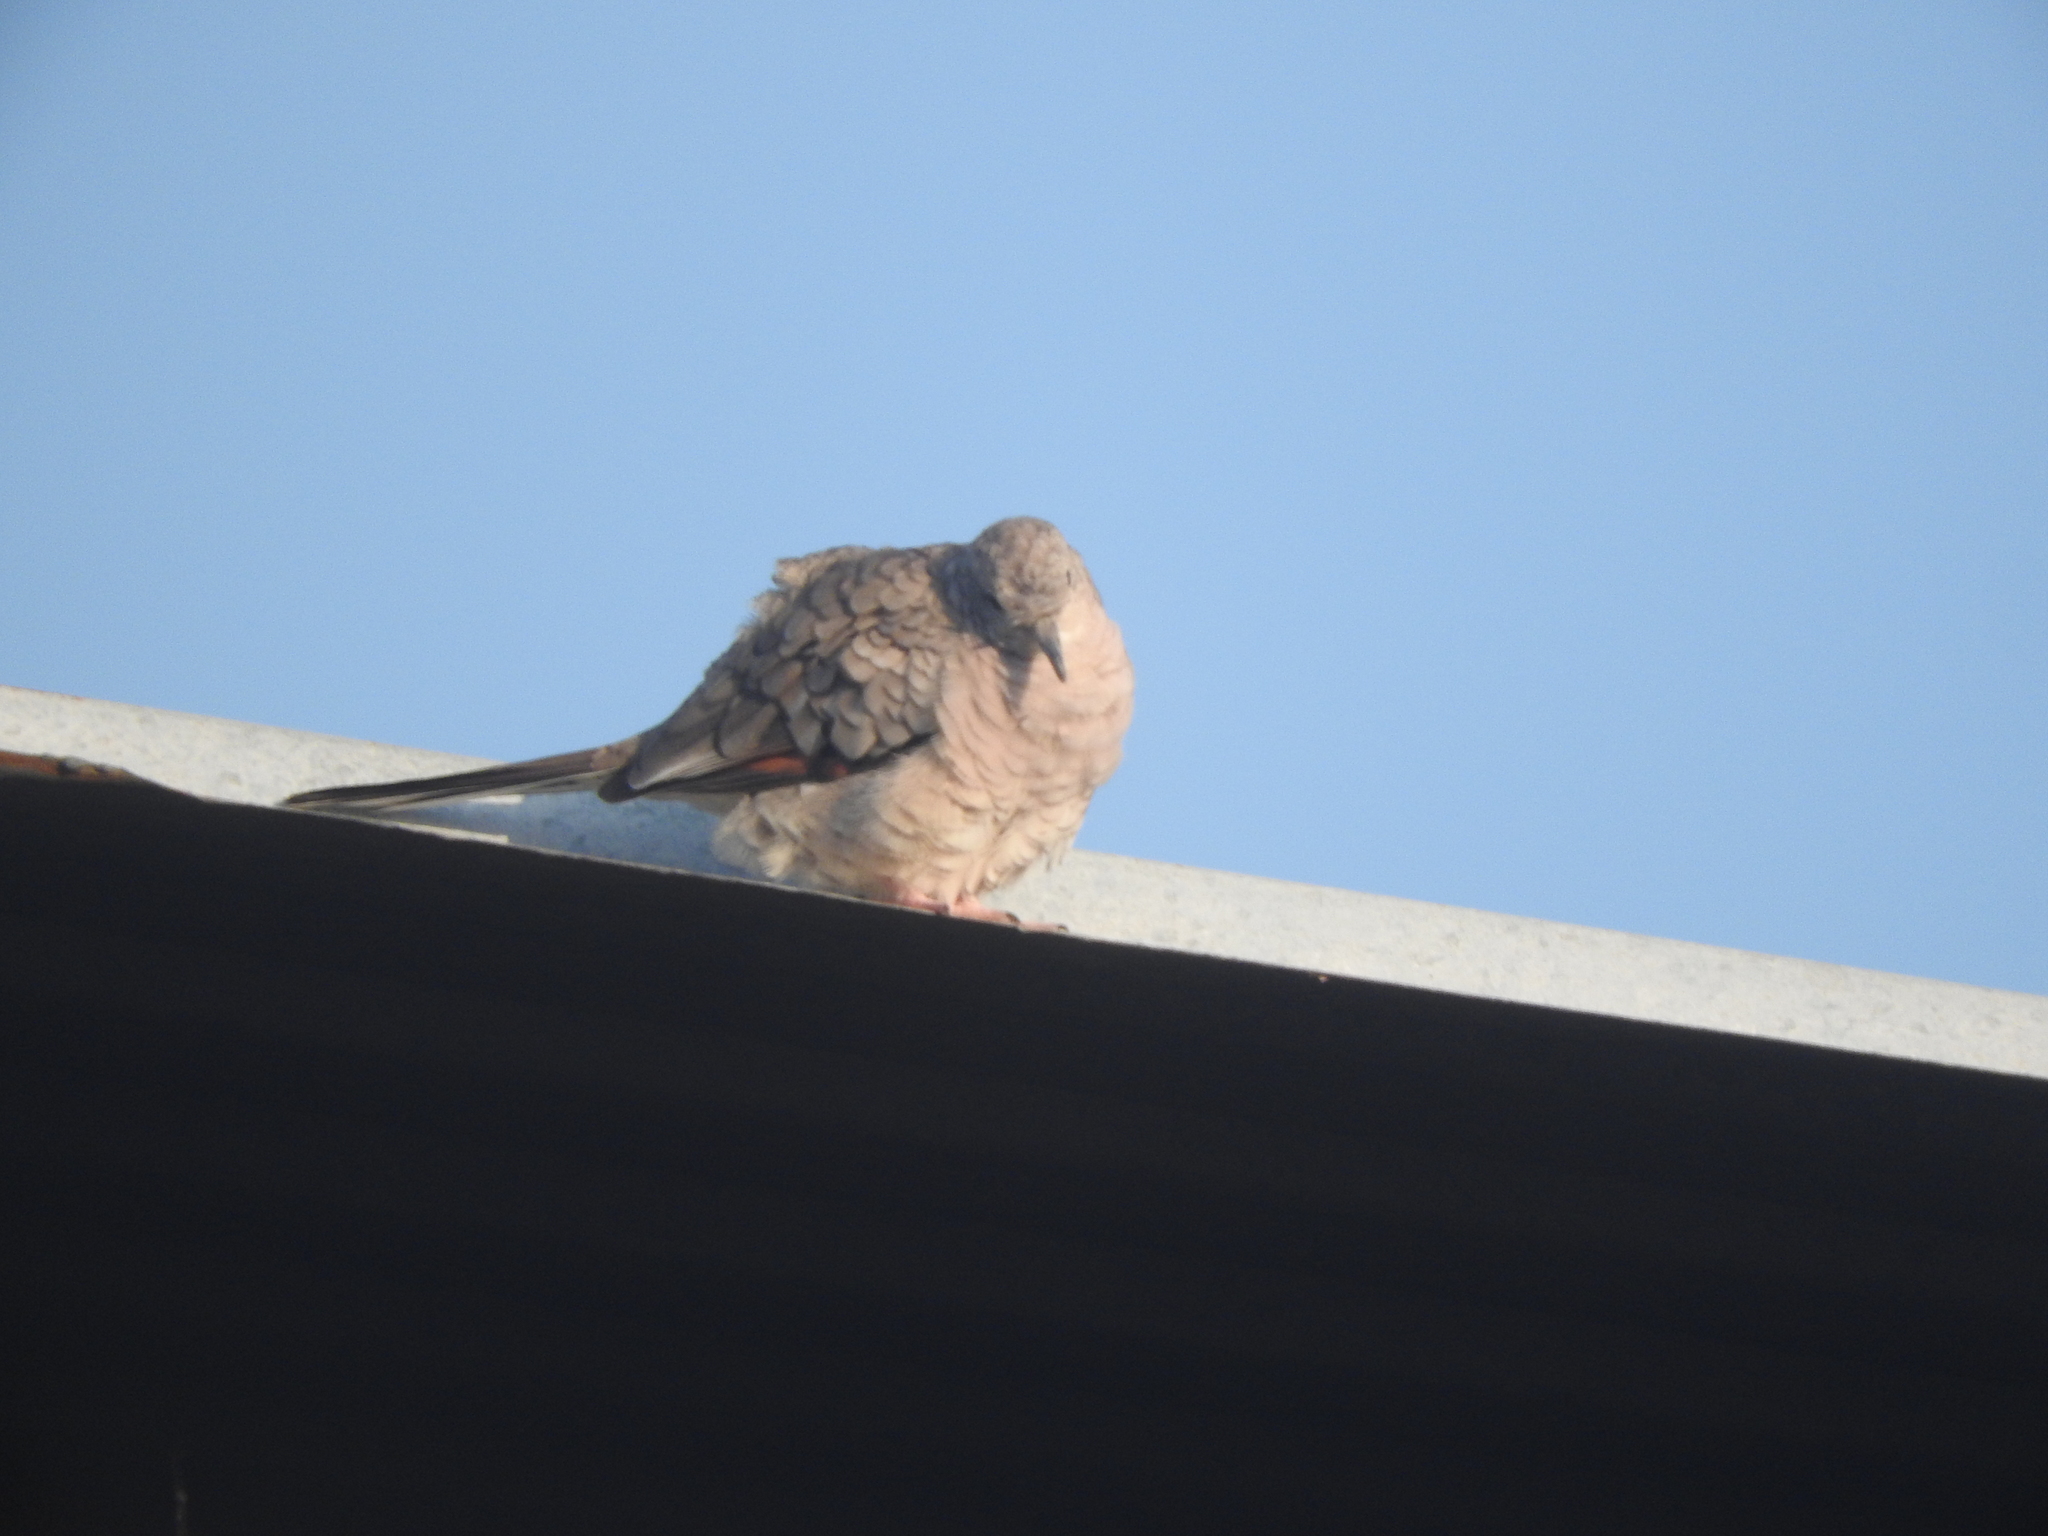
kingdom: Animalia
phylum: Chordata
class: Aves
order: Columbiformes
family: Columbidae
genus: Columbina
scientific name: Columbina inca
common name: Inca dove
